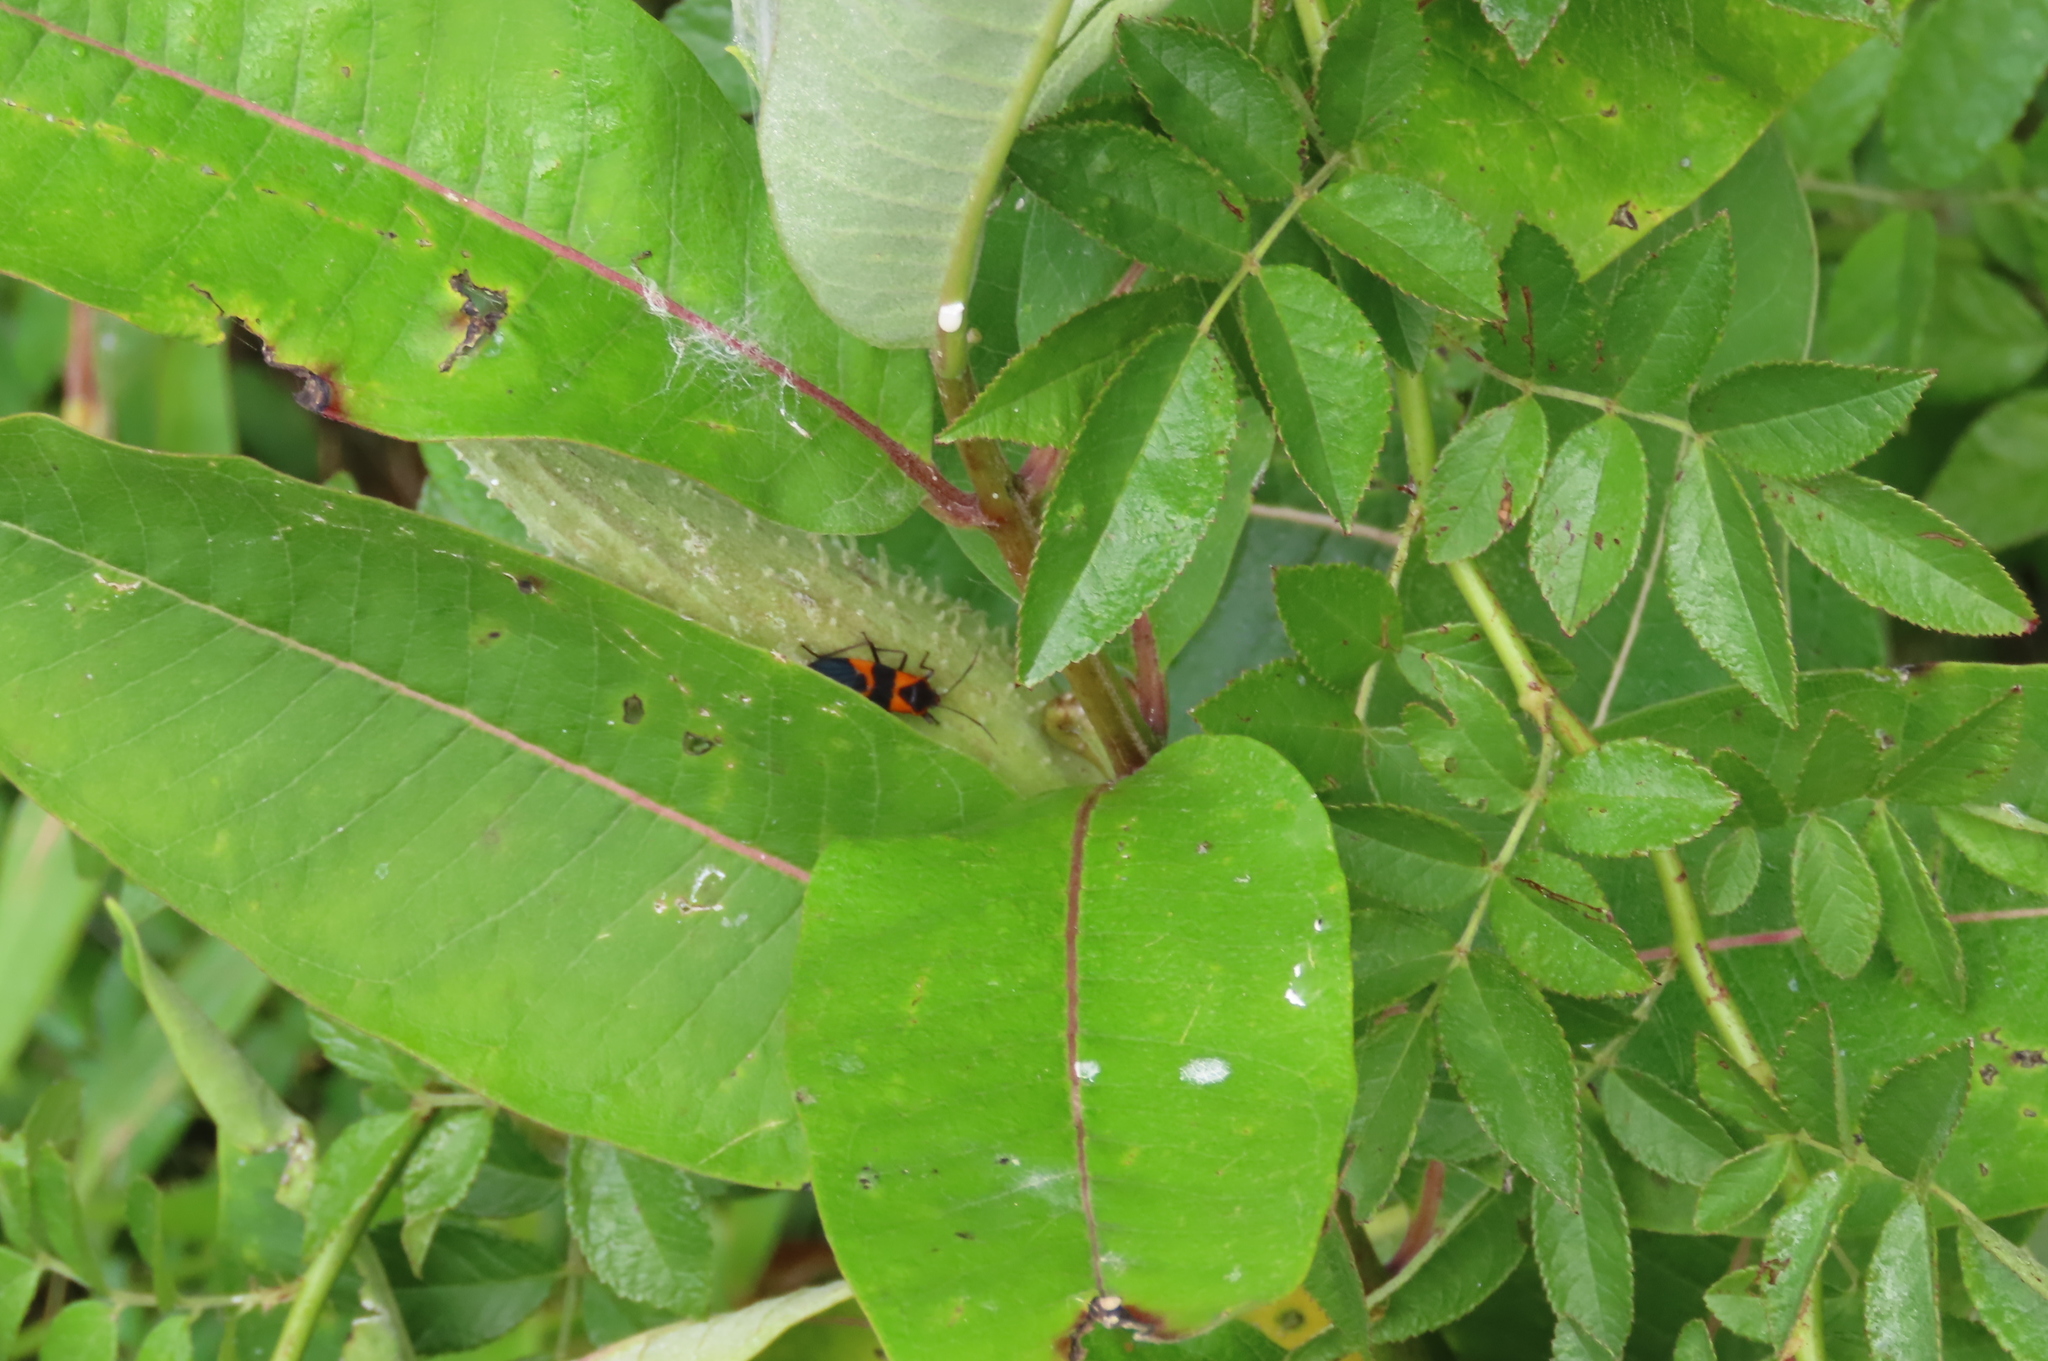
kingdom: Animalia
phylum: Arthropoda
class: Insecta
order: Hemiptera
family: Lygaeidae
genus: Oncopeltus
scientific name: Oncopeltus fasciatus
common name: Large milkweed bug
